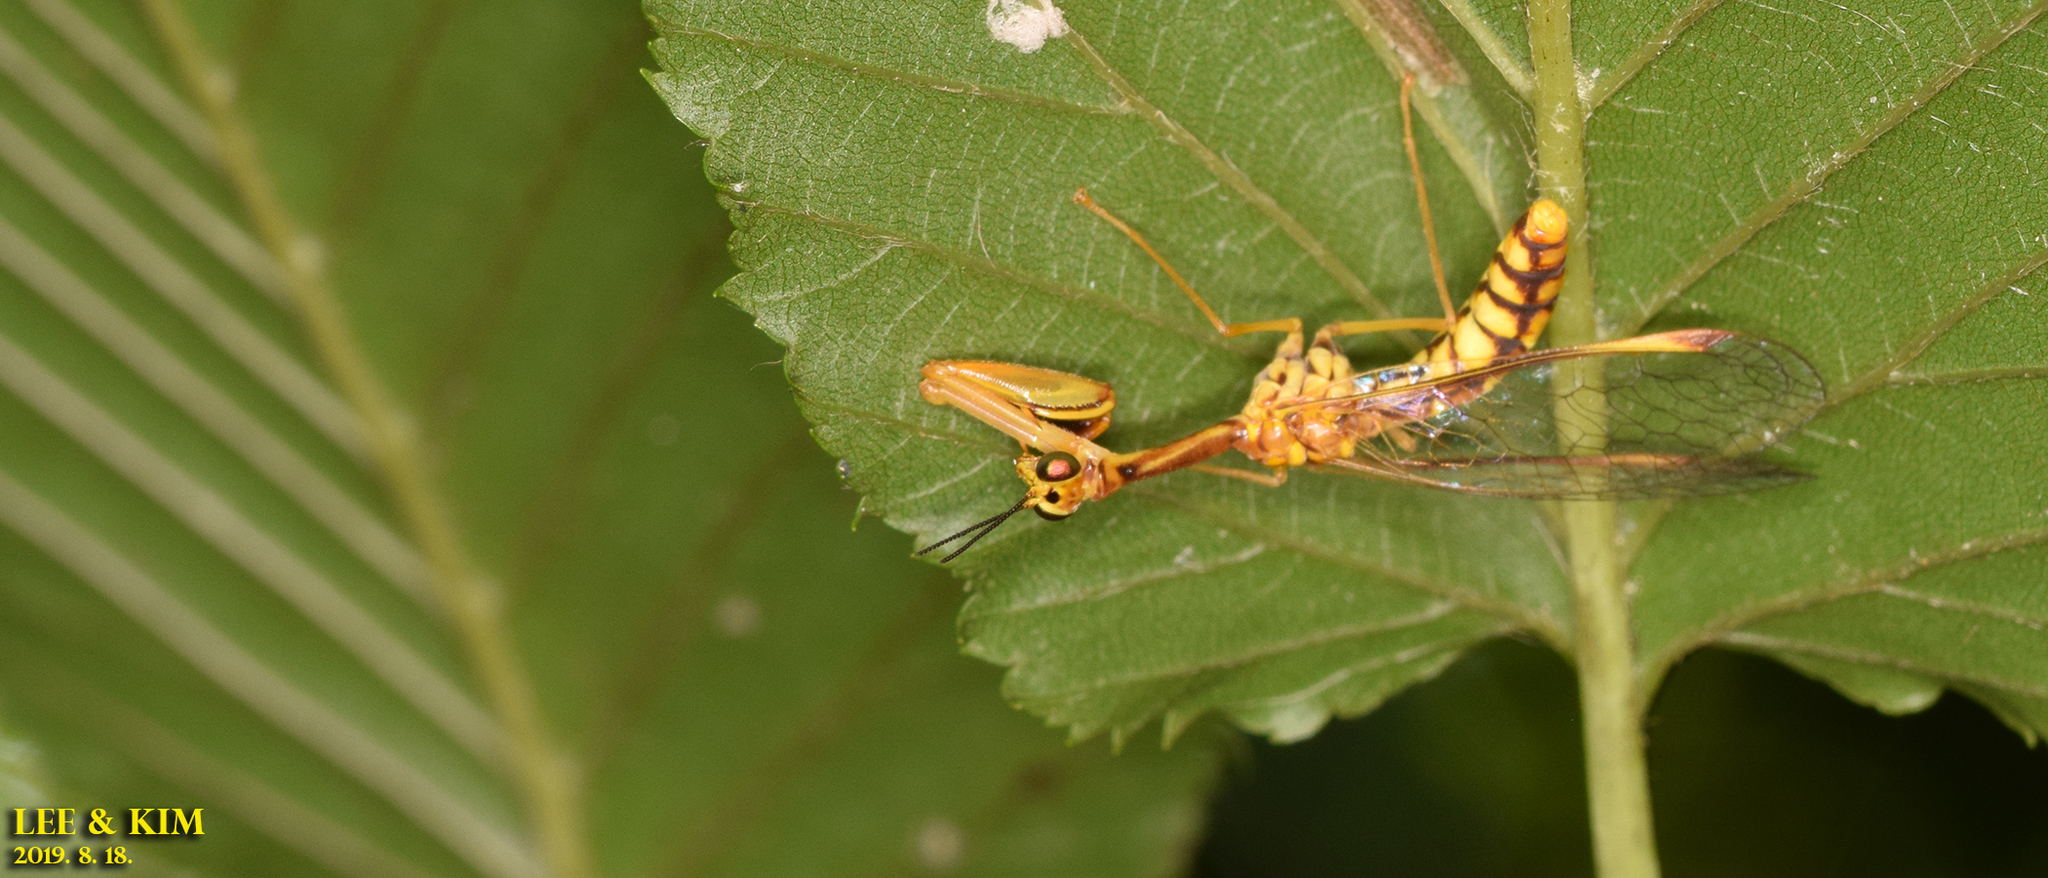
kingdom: Animalia
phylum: Arthropoda
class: Insecta
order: Neuroptera
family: Mantispidae
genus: Mantispa
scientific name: Mantispa japonica
